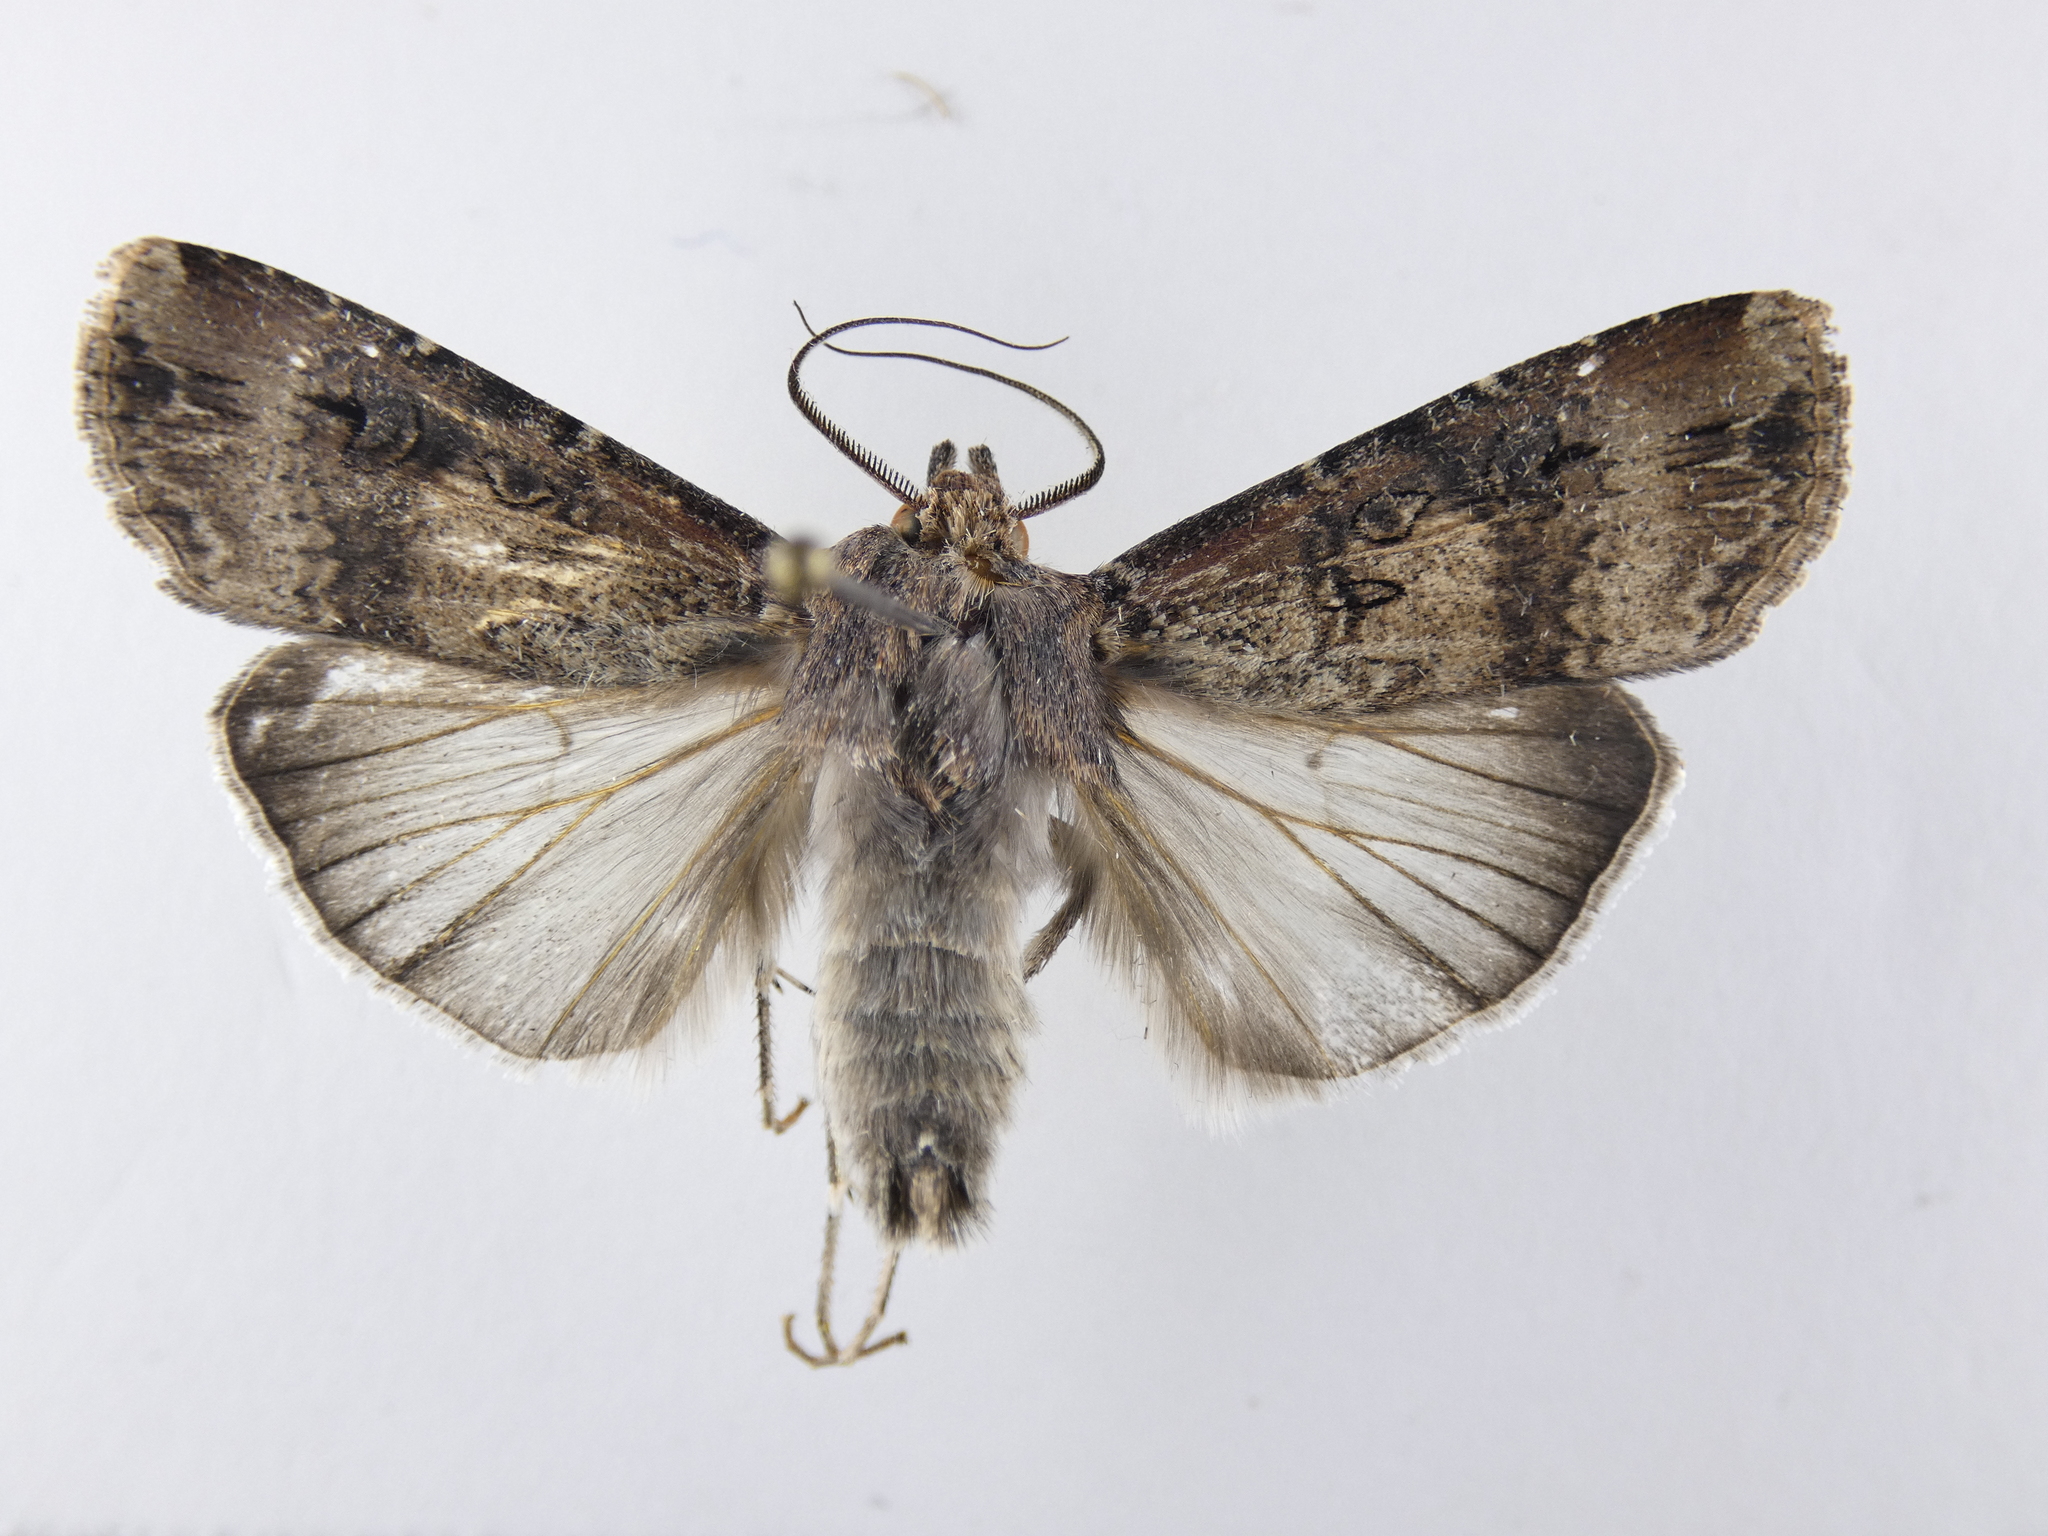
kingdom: Animalia
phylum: Arthropoda
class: Insecta
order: Lepidoptera
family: Noctuidae
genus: Agrotis
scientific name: Agrotis ipsilon
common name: Dark sword-grass
